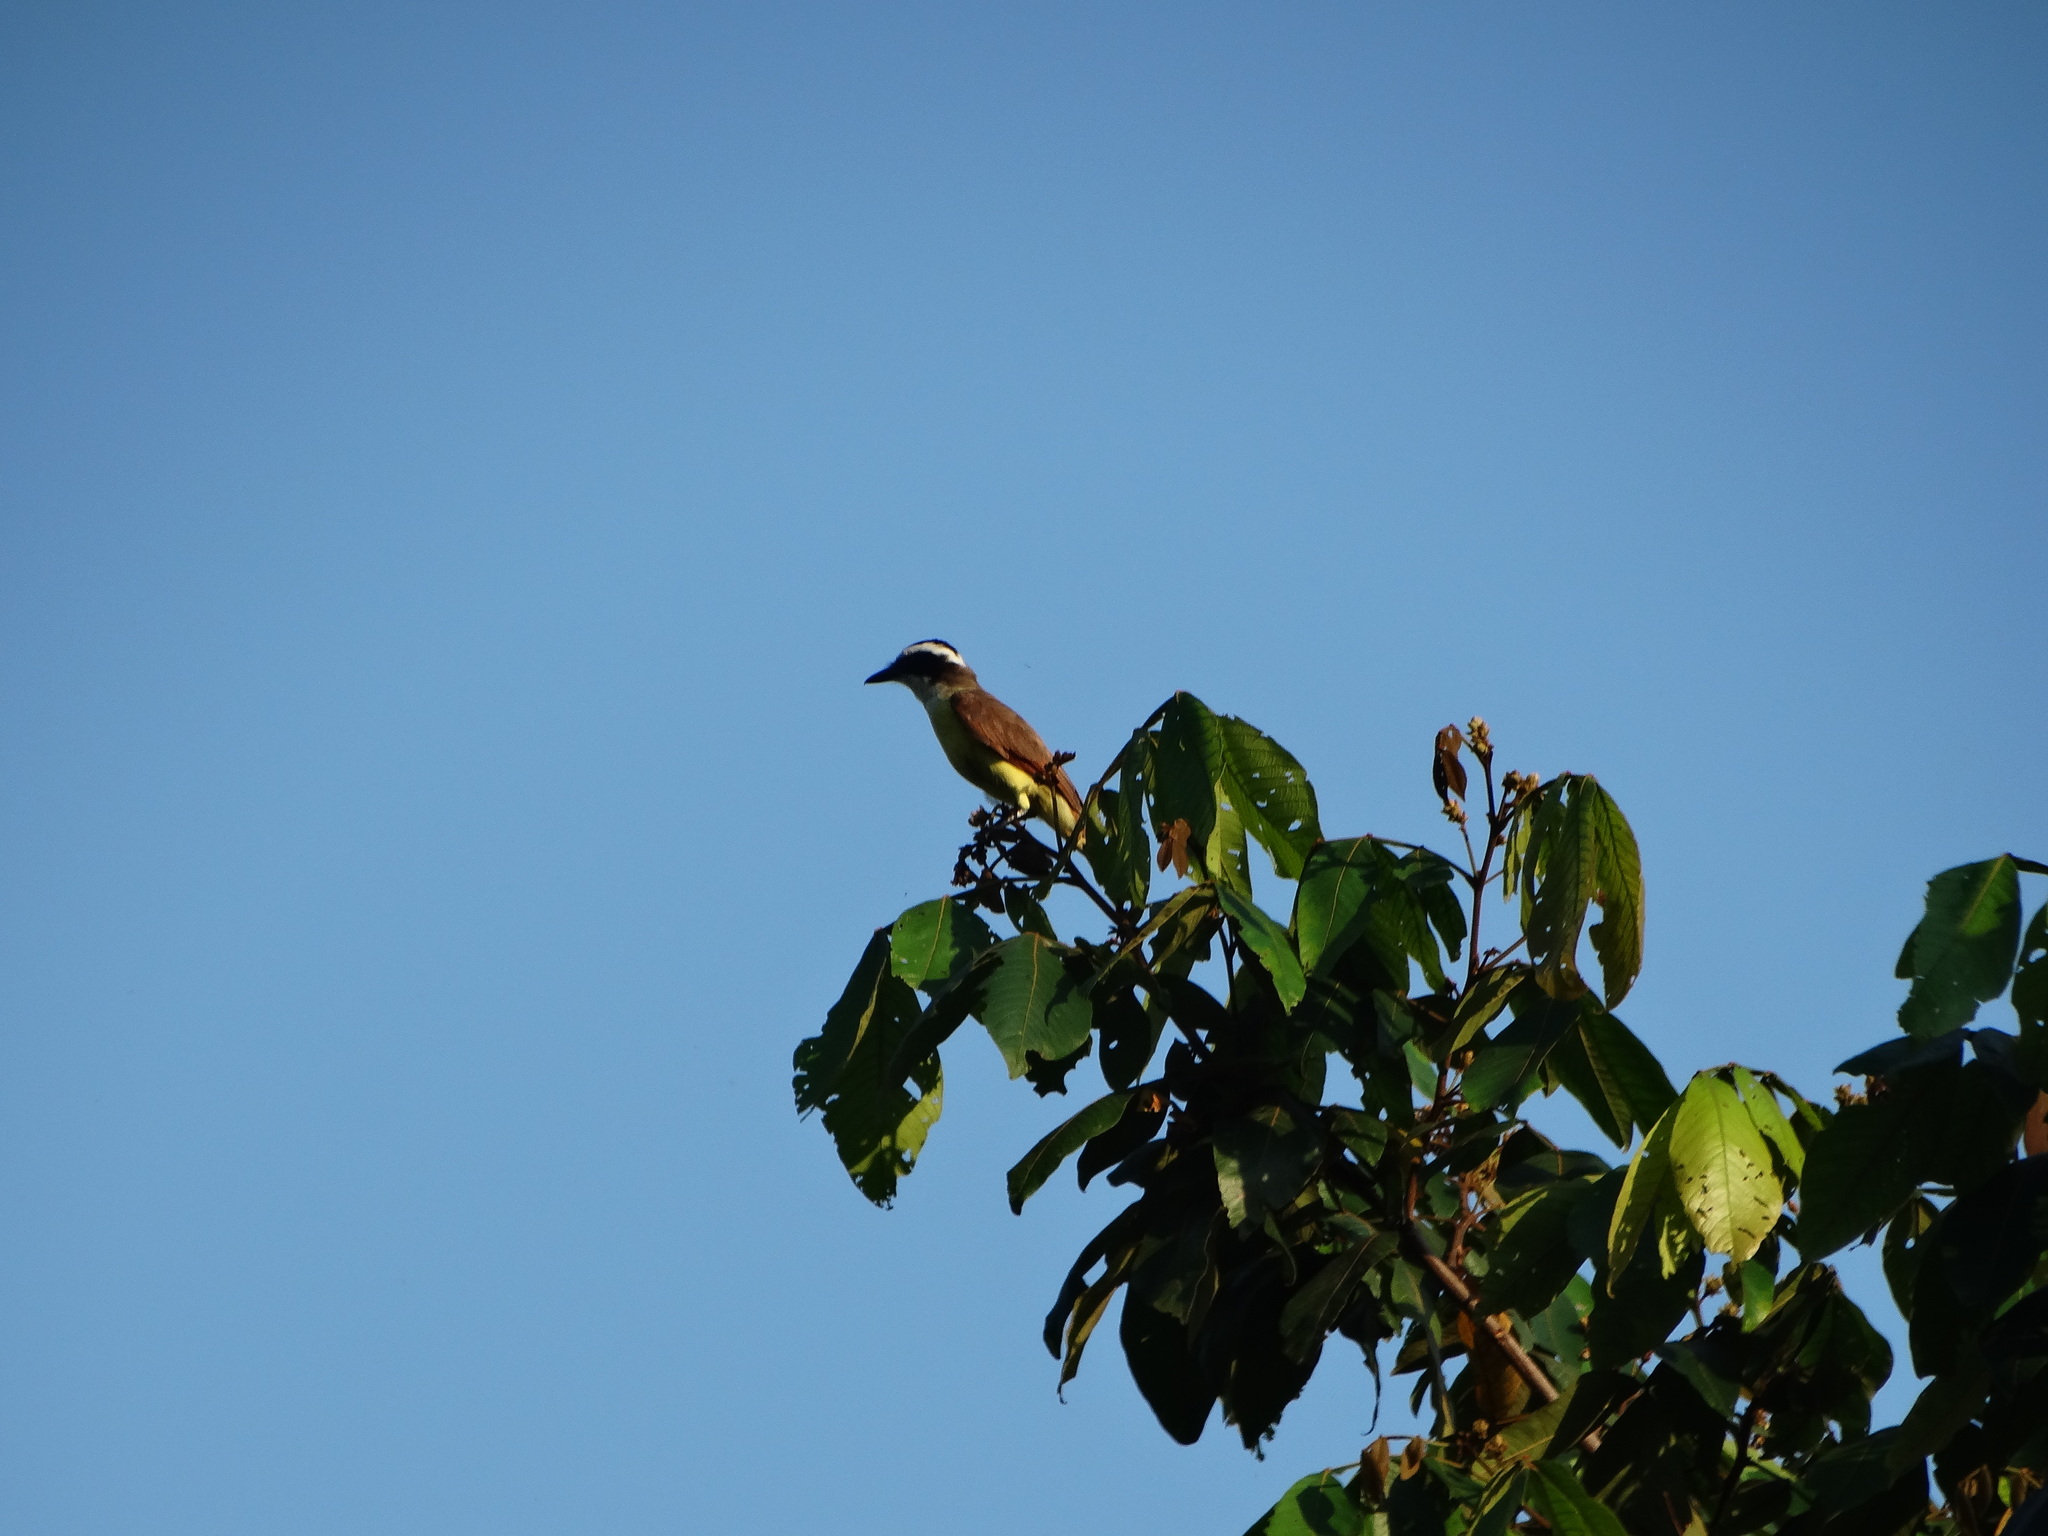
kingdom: Animalia
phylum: Chordata
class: Aves
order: Passeriformes
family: Tyrannidae
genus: Pitangus
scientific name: Pitangus sulphuratus
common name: Great kiskadee
